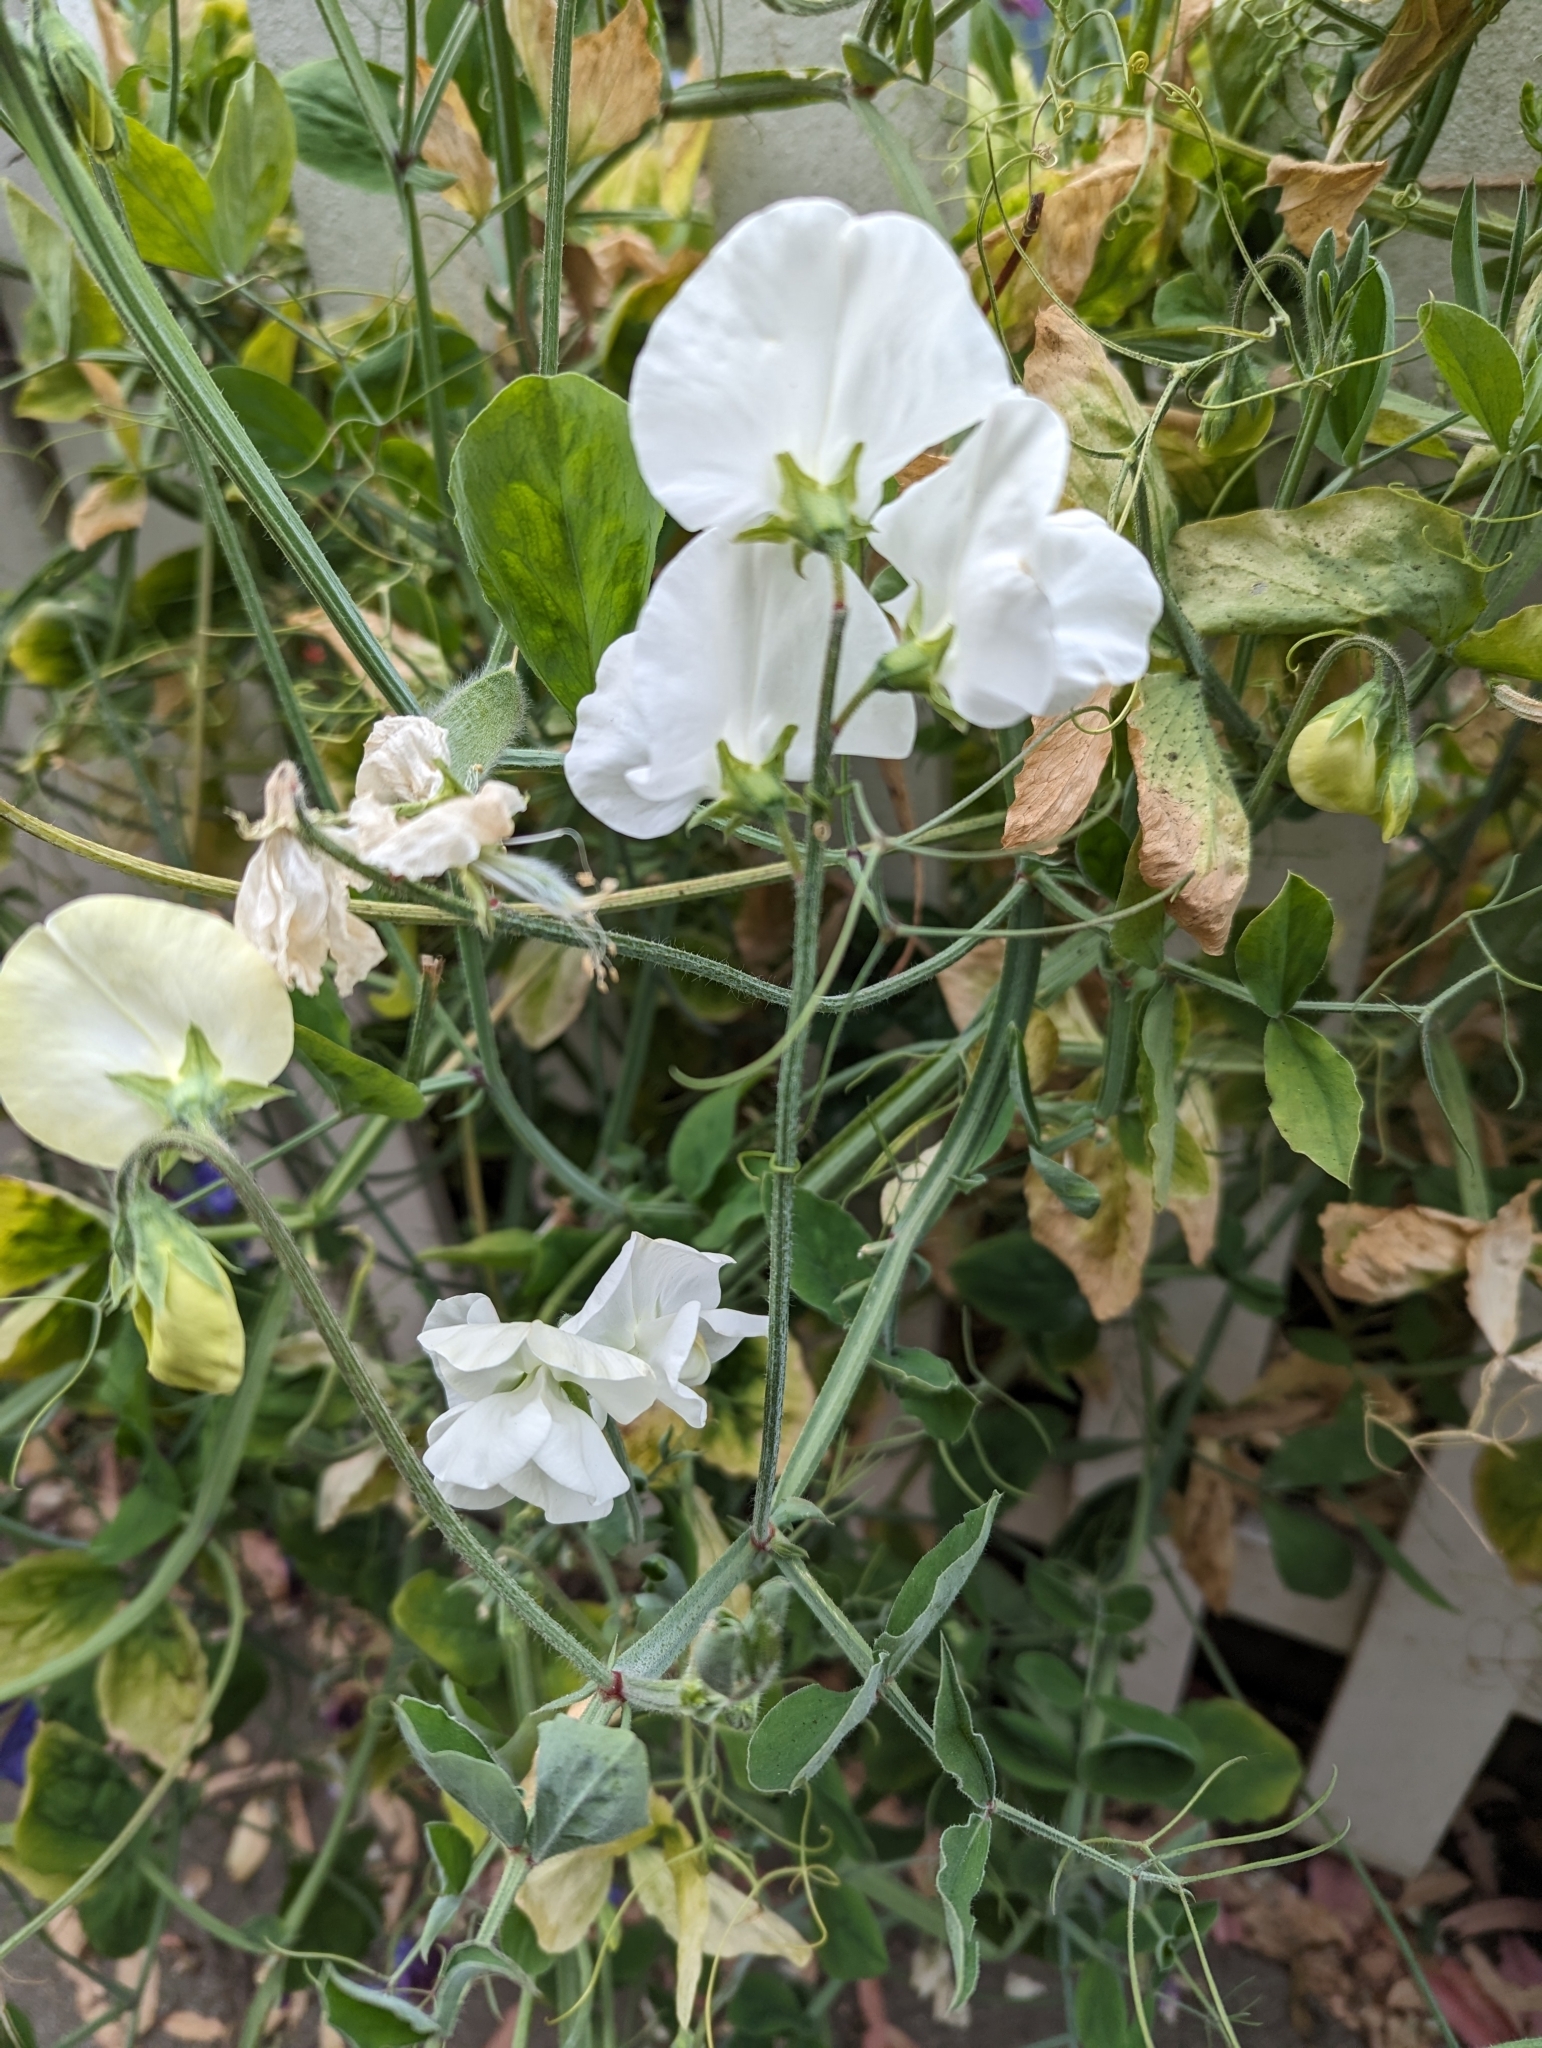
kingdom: Plantae
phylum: Tracheophyta
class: Magnoliopsida
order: Fabales
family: Fabaceae
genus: Lathyrus
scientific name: Lathyrus odoratus
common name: Sweet pea
